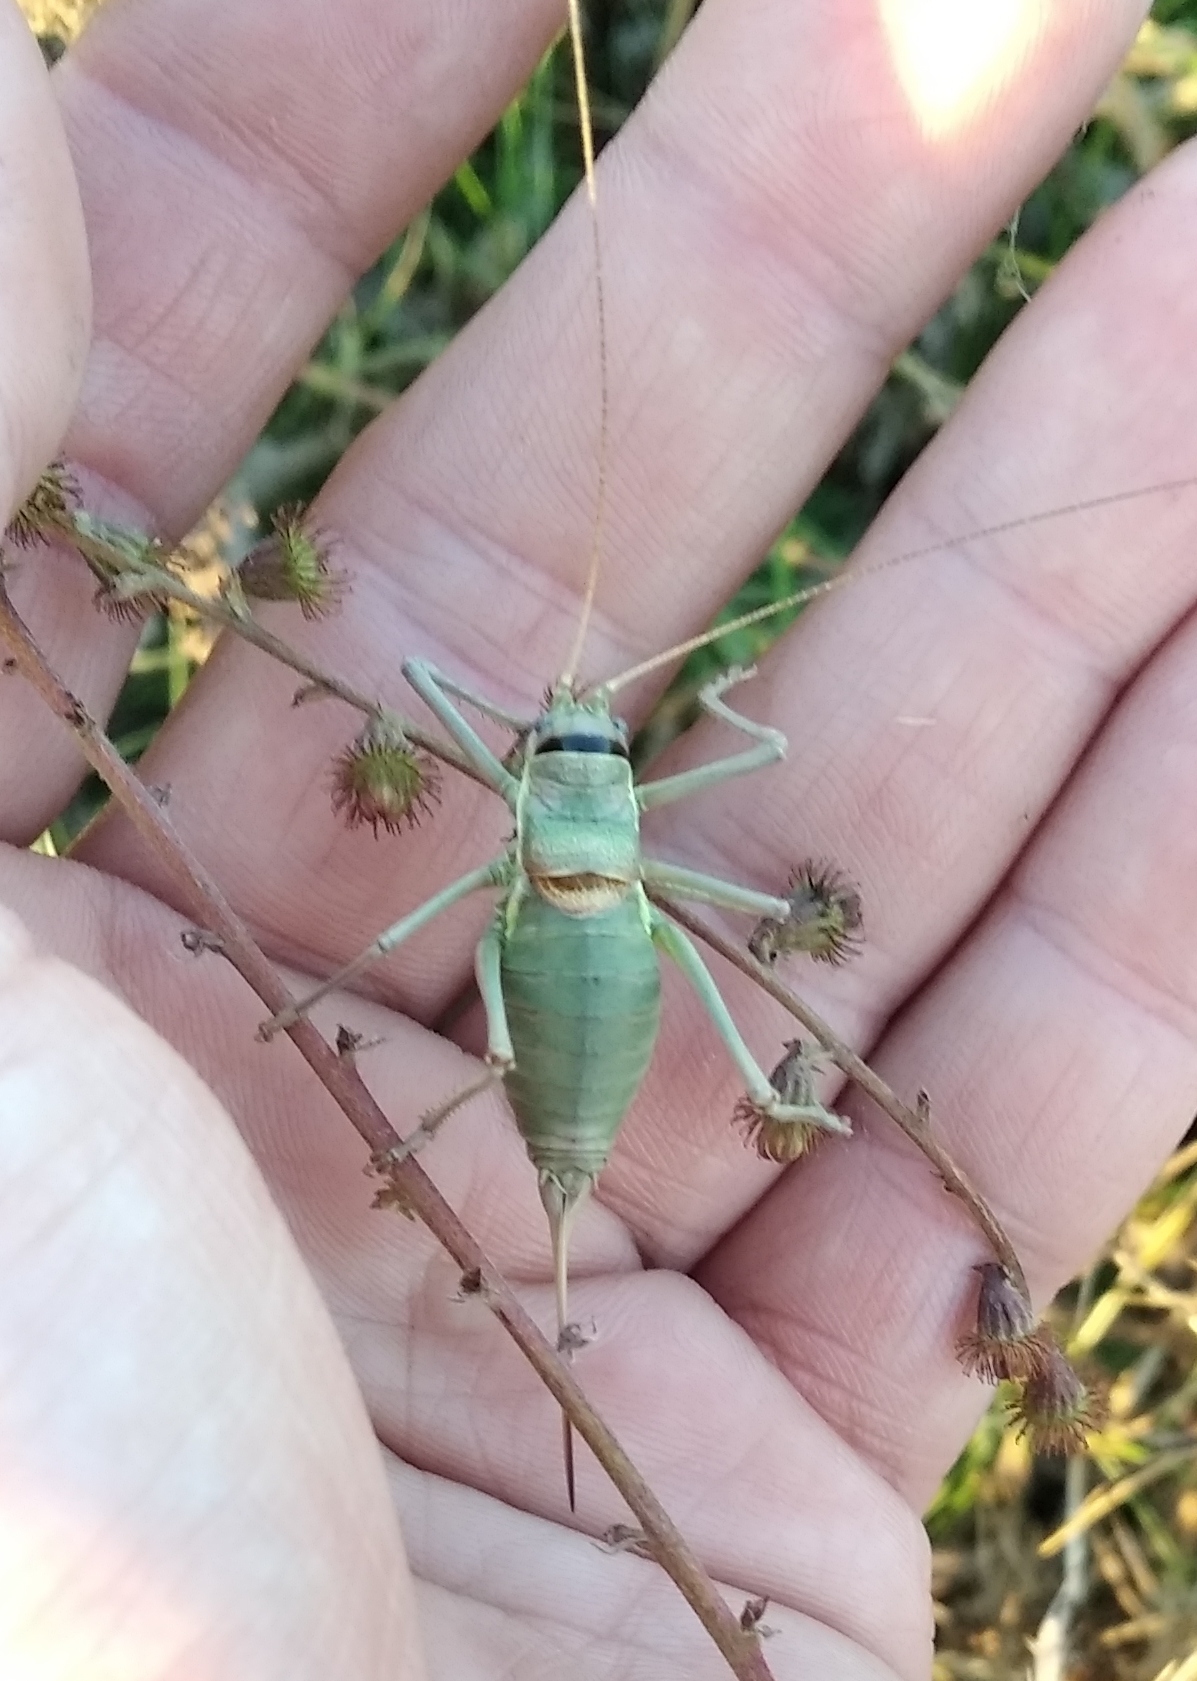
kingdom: Animalia
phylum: Arthropoda
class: Insecta
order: Orthoptera
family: Tettigoniidae
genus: Ephippiger
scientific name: Ephippiger ephippiger
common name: Eastern saddle bush-cricket
